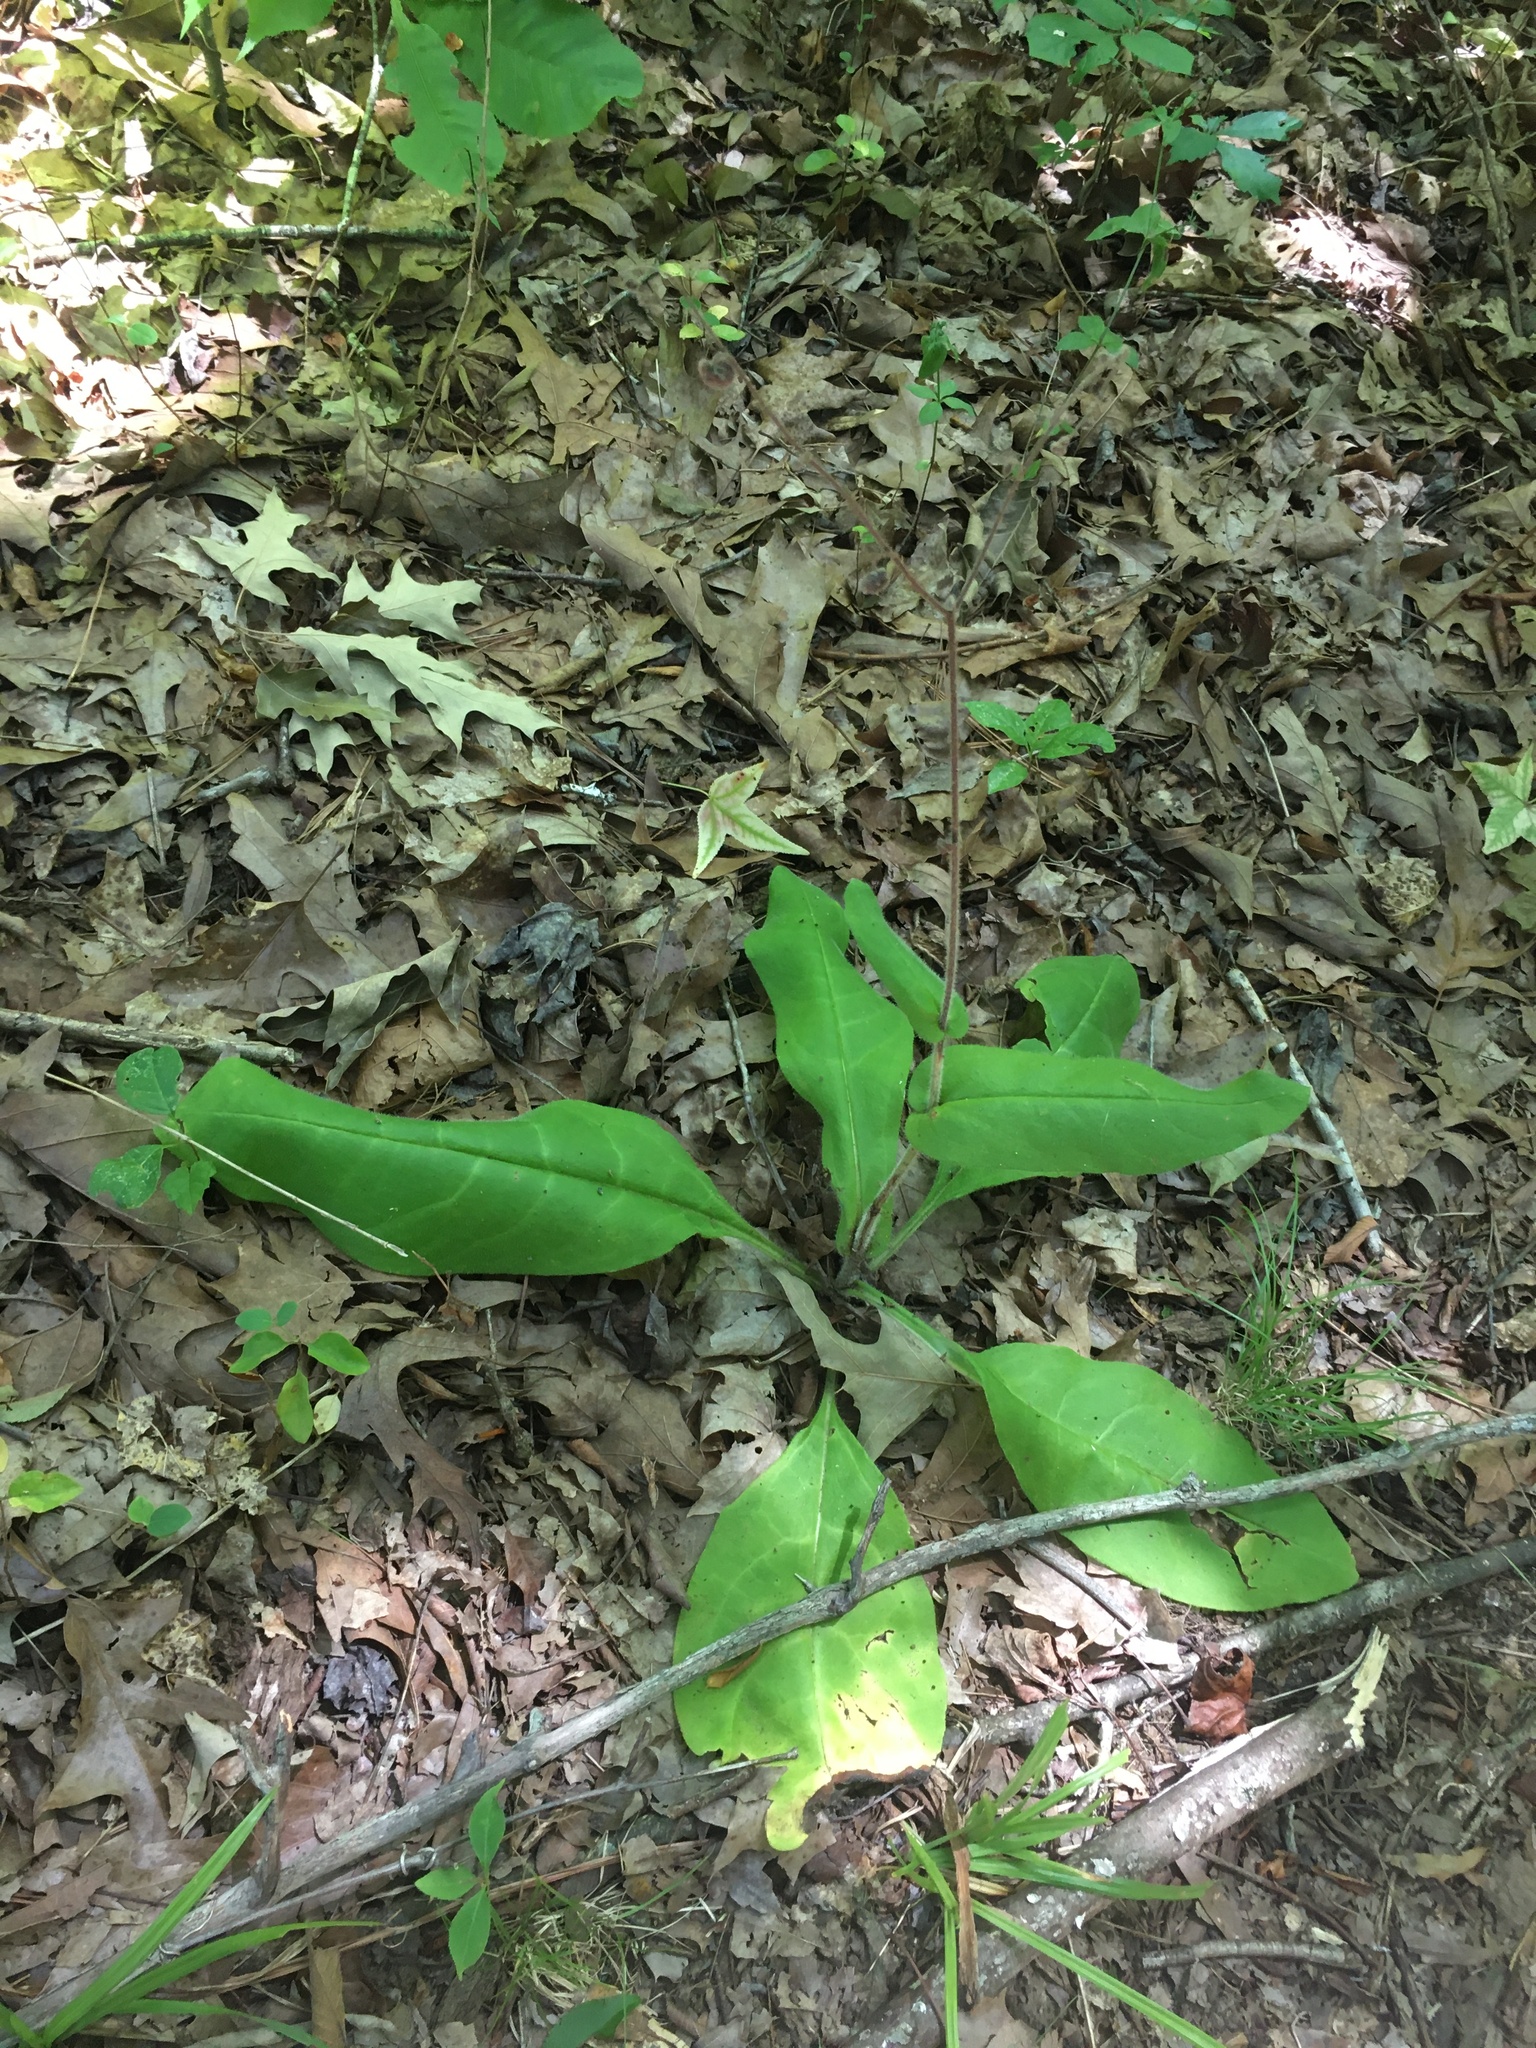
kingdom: Plantae
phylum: Tracheophyta
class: Magnoliopsida
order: Boraginales
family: Boraginaceae
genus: Andersonglossum
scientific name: Andersonglossum virginianum
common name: Wild comfrey
